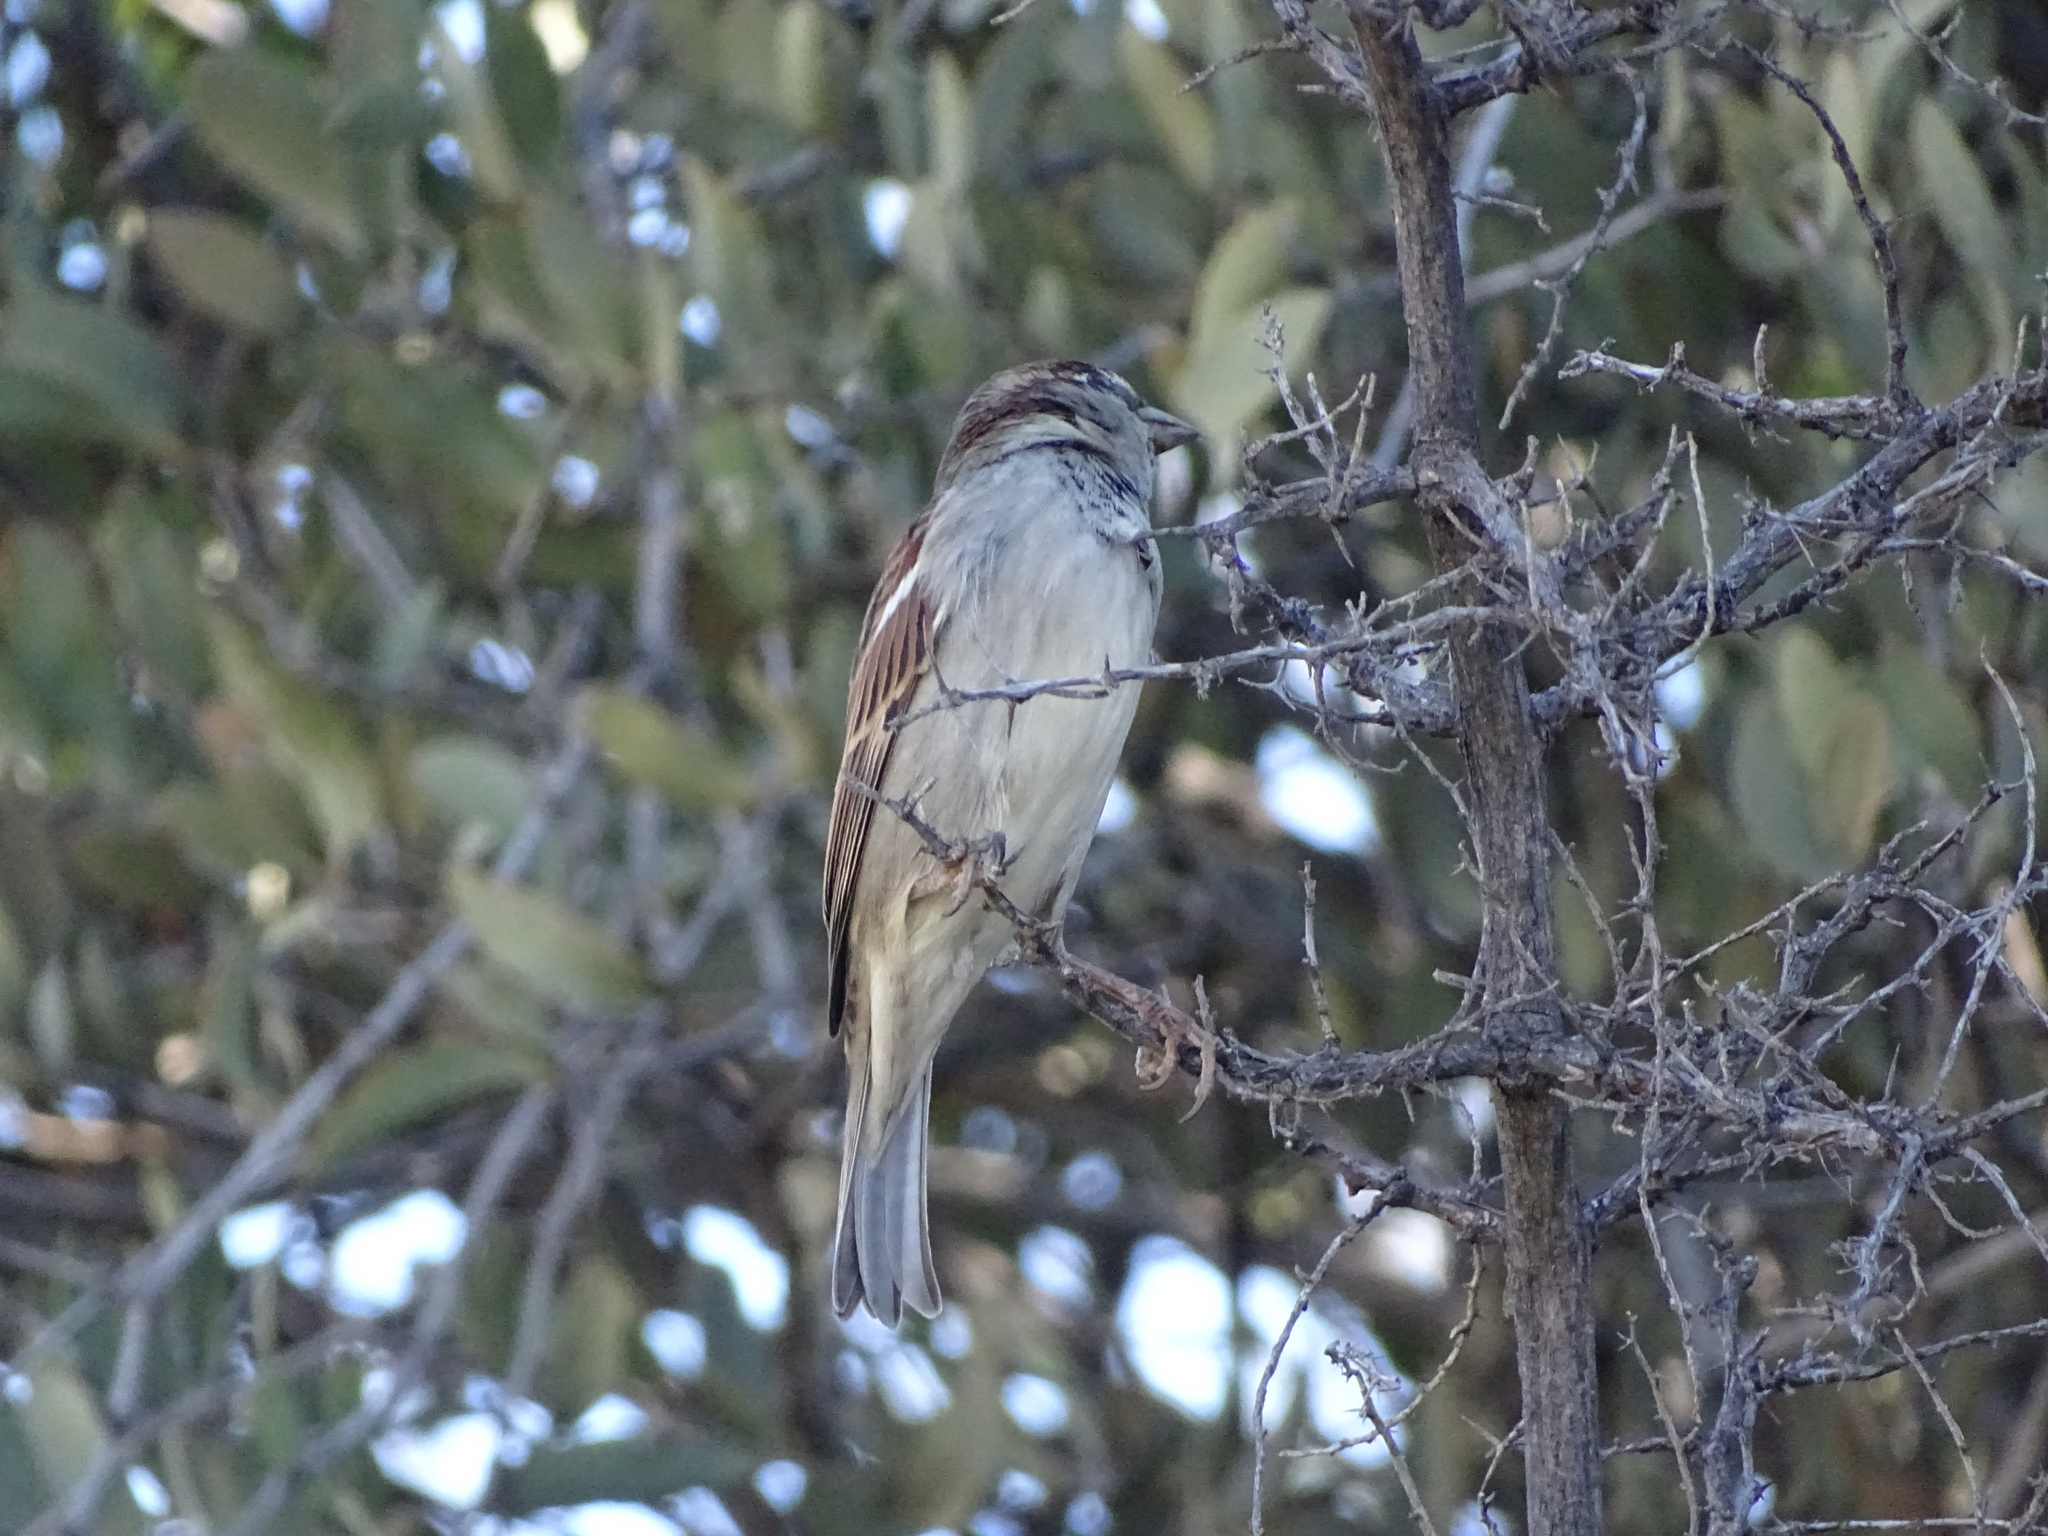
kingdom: Animalia
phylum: Chordata
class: Aves
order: Passeriformes
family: Passeridae
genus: Passer
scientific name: Passer domesticus
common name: House sparrow
